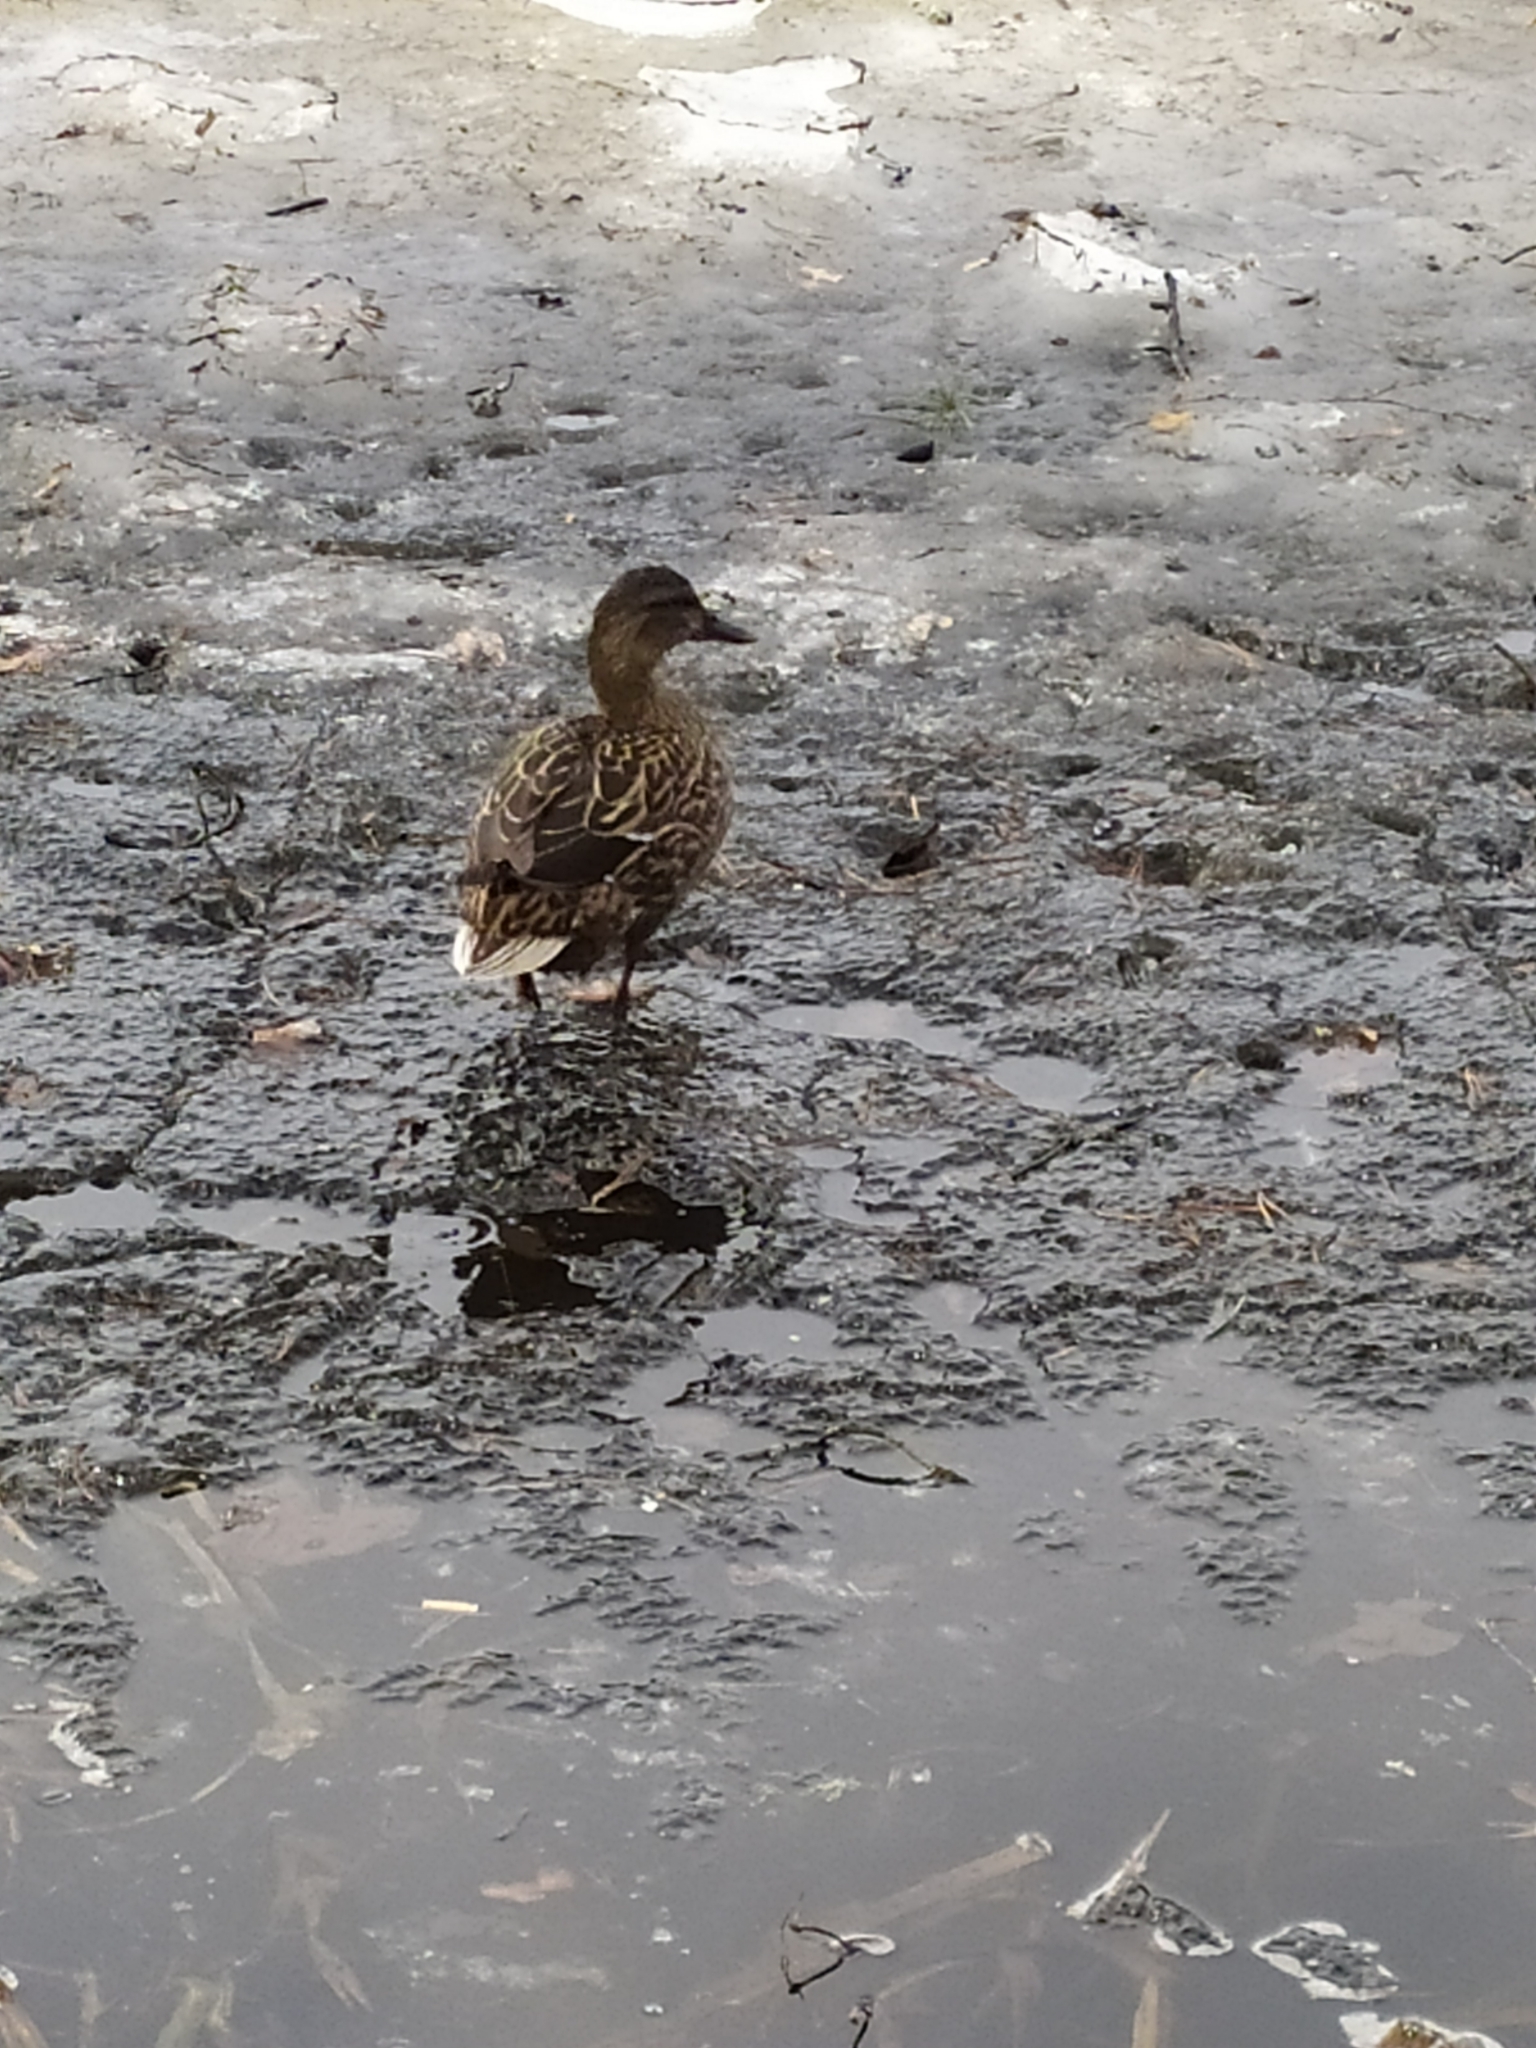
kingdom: Animalia
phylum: Chordata
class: Aves
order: Anseriformes
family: Anatidae
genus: Anas
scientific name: Anas platyrhynchos
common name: Mallard
